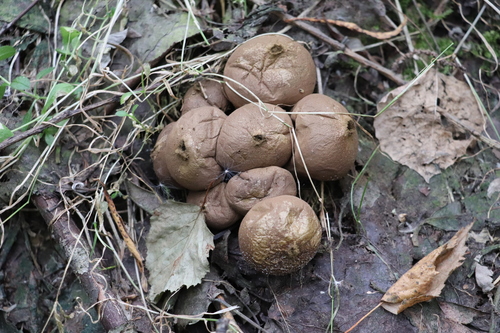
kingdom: Fungi
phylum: Basidiomycota
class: Agaricomycetes
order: Agaricales
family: Lycoperdaceae
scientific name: Lycoperdaceae
